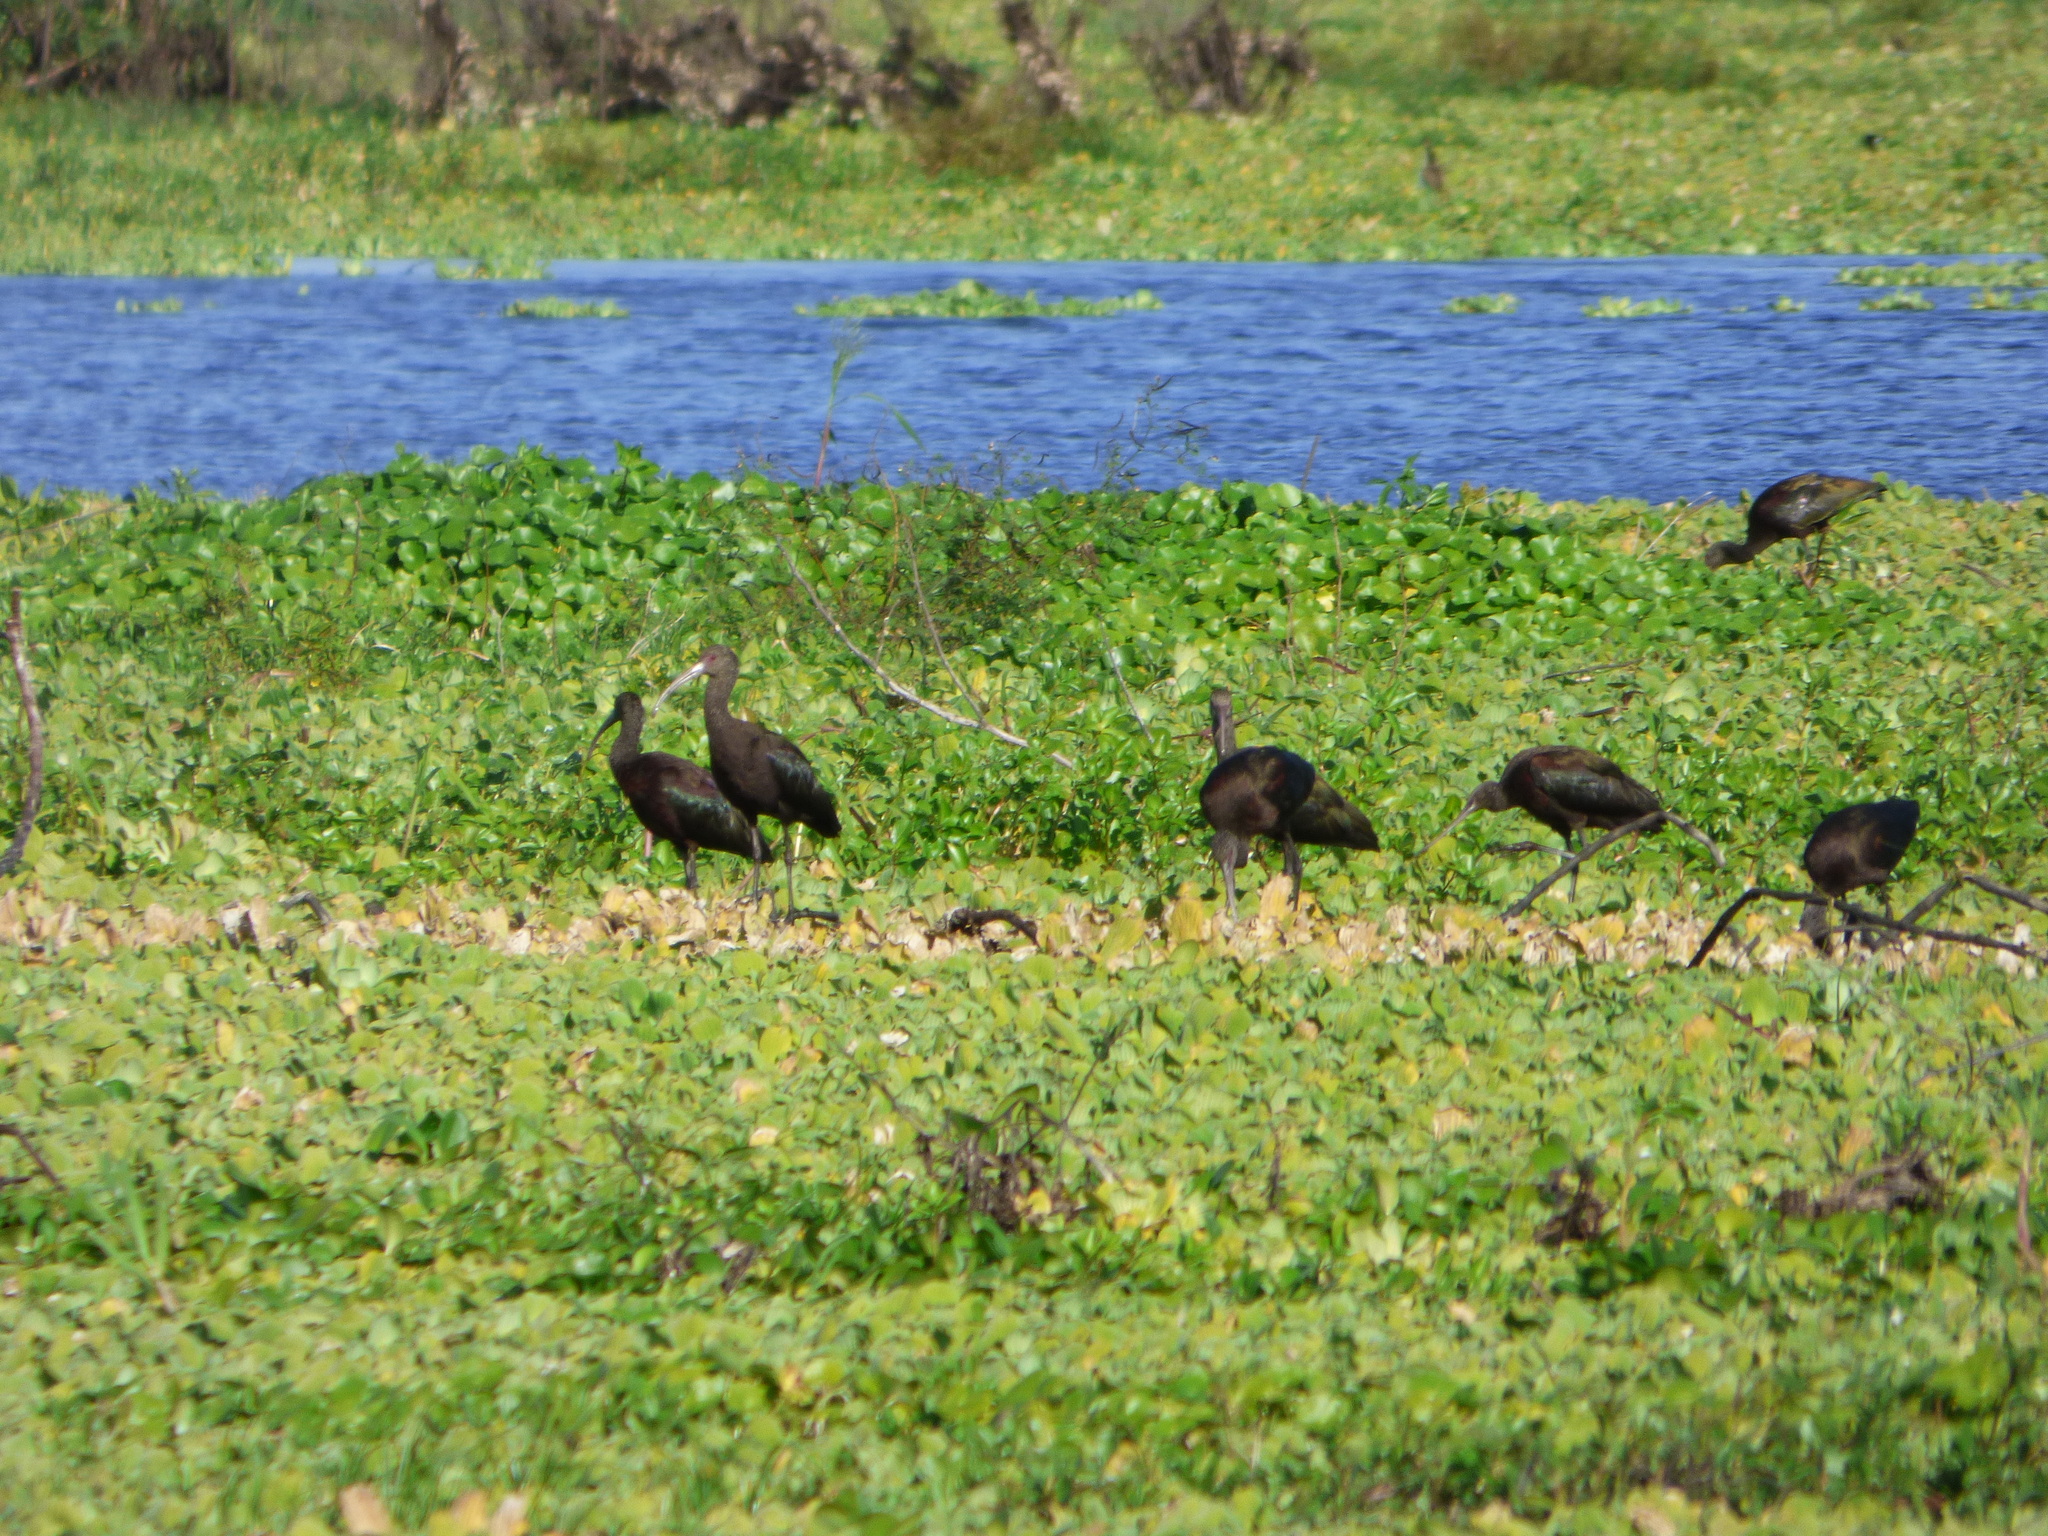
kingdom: Animalia
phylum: Chordata
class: Aves
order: Pelecaniformes
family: Threskiornithidae
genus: Plegadis
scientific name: Plegadis chihi
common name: White-faced ibis
